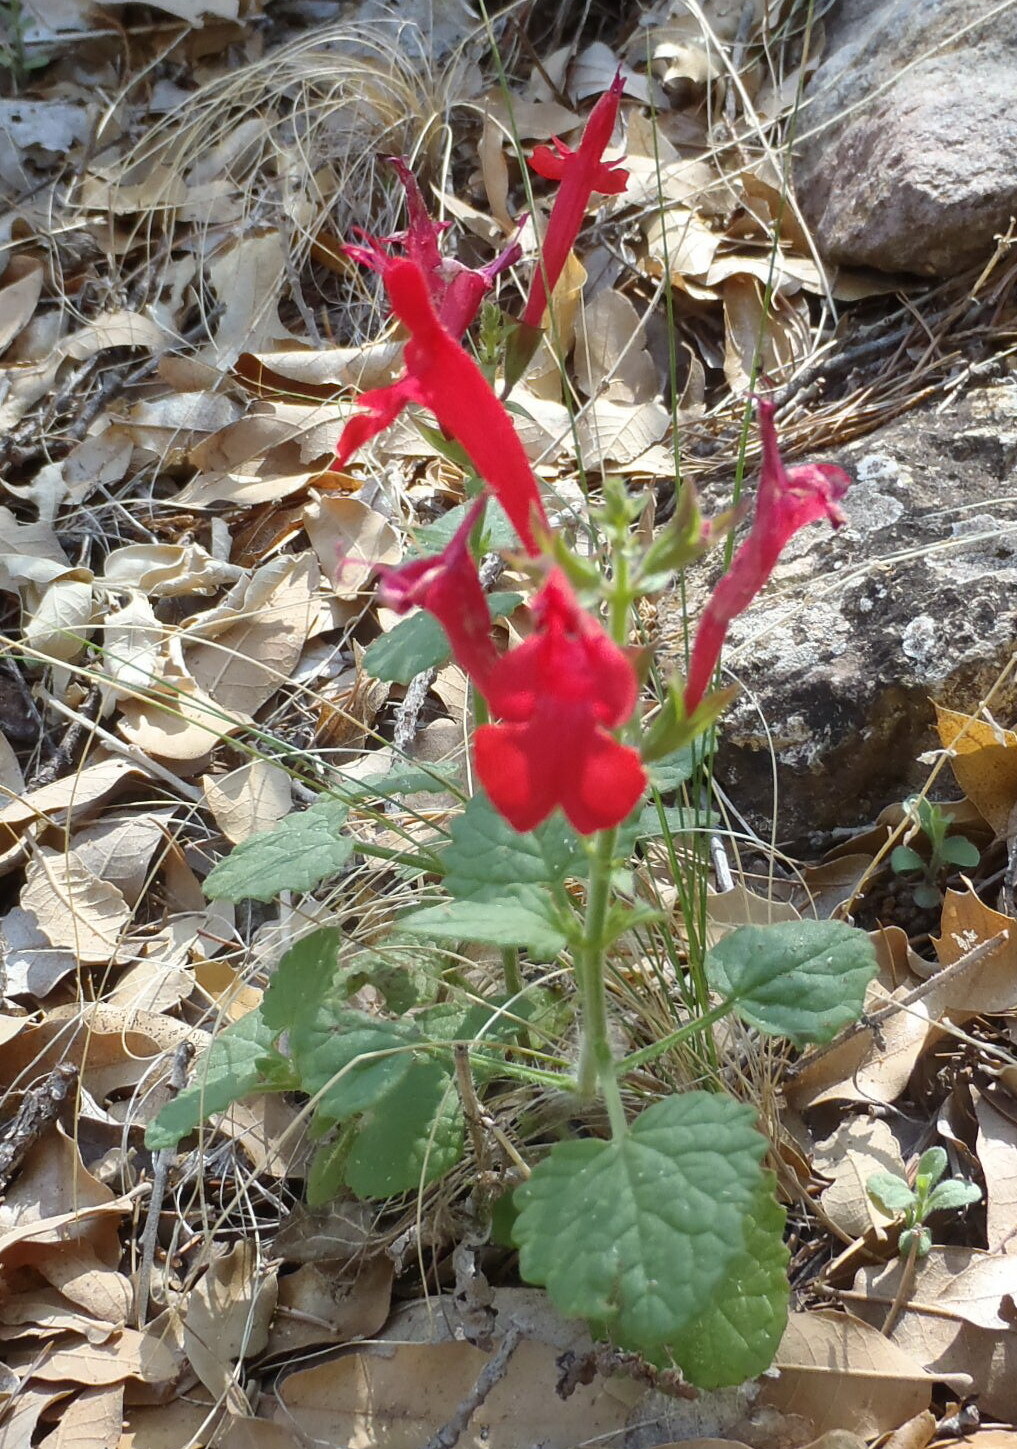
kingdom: Plantae
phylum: Tracheophyta
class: Magnoliopsida
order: Lamiales
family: Lamiaceae
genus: Salvia
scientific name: Salvia roemeriana
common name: Cedar sage
